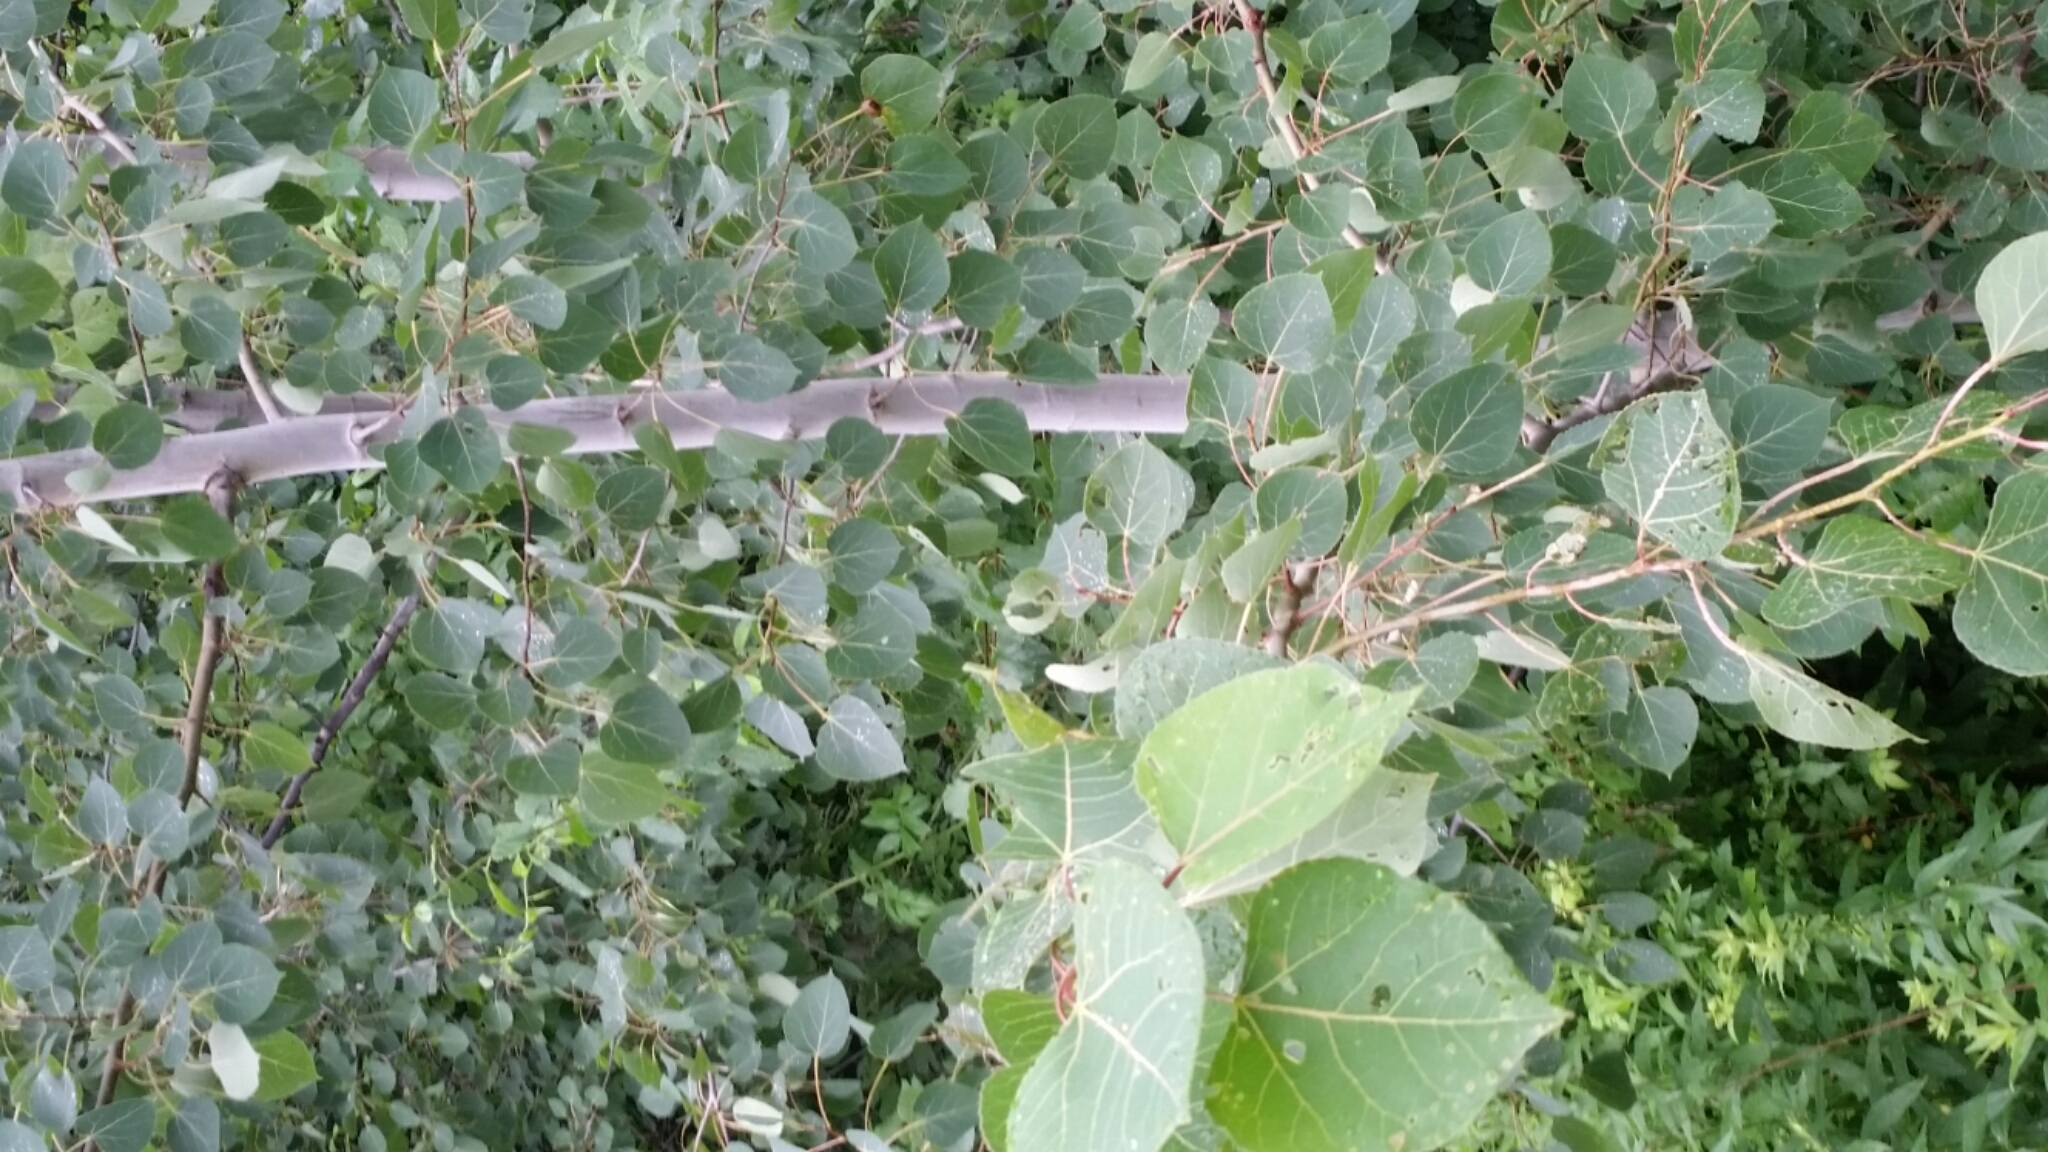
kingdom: Plantae
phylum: Tracheophyta
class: Magnoliopsida
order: Malpighiales
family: Salicaceae
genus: Populus
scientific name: Populus tremuloides
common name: Quaking aspen
